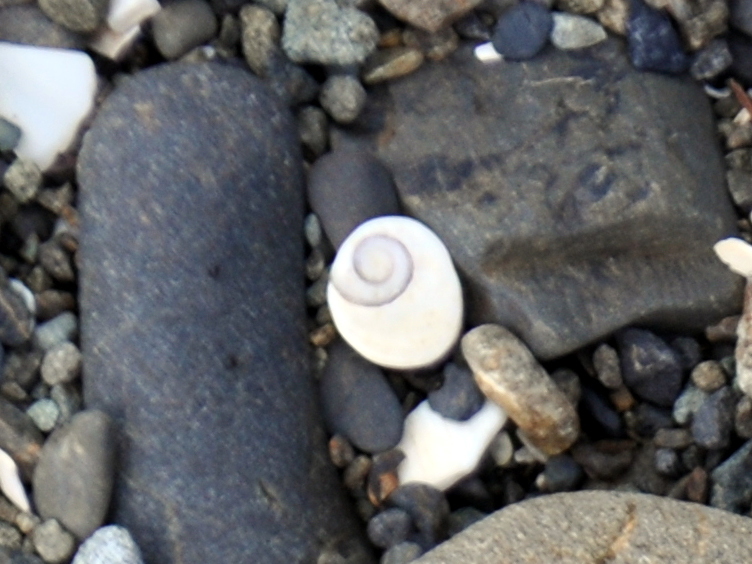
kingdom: Animalia
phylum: Mollusca
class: Gastropoda
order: Trochida
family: Turbinidae
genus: Lunella
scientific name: Lunella smaragda
